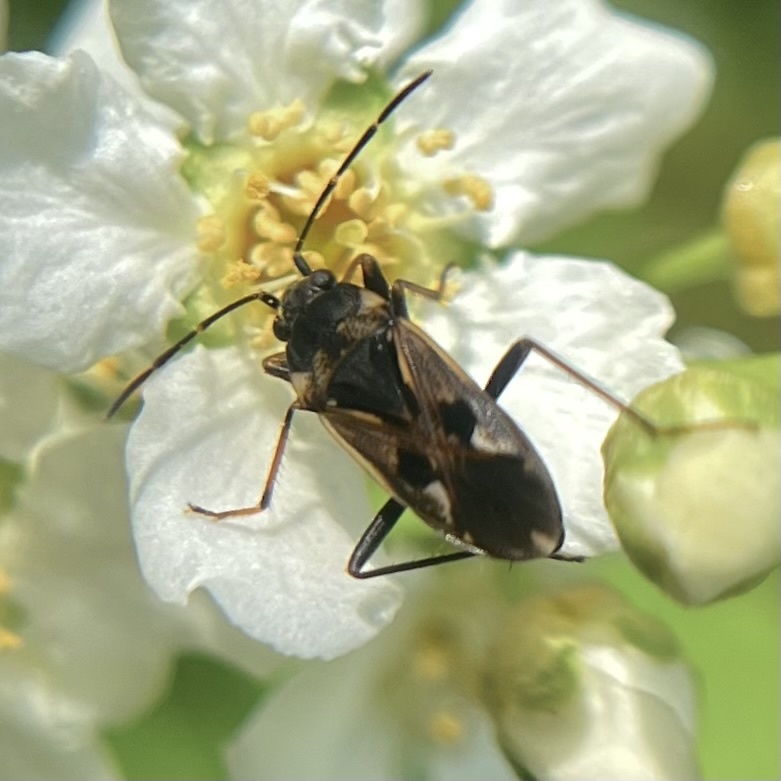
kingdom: Animalia
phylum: Arthropoda
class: Insecta
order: Hemiptera
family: Rhyparochromidae
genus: Rhyparochromus
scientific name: Rhyparochromus vulgaris
